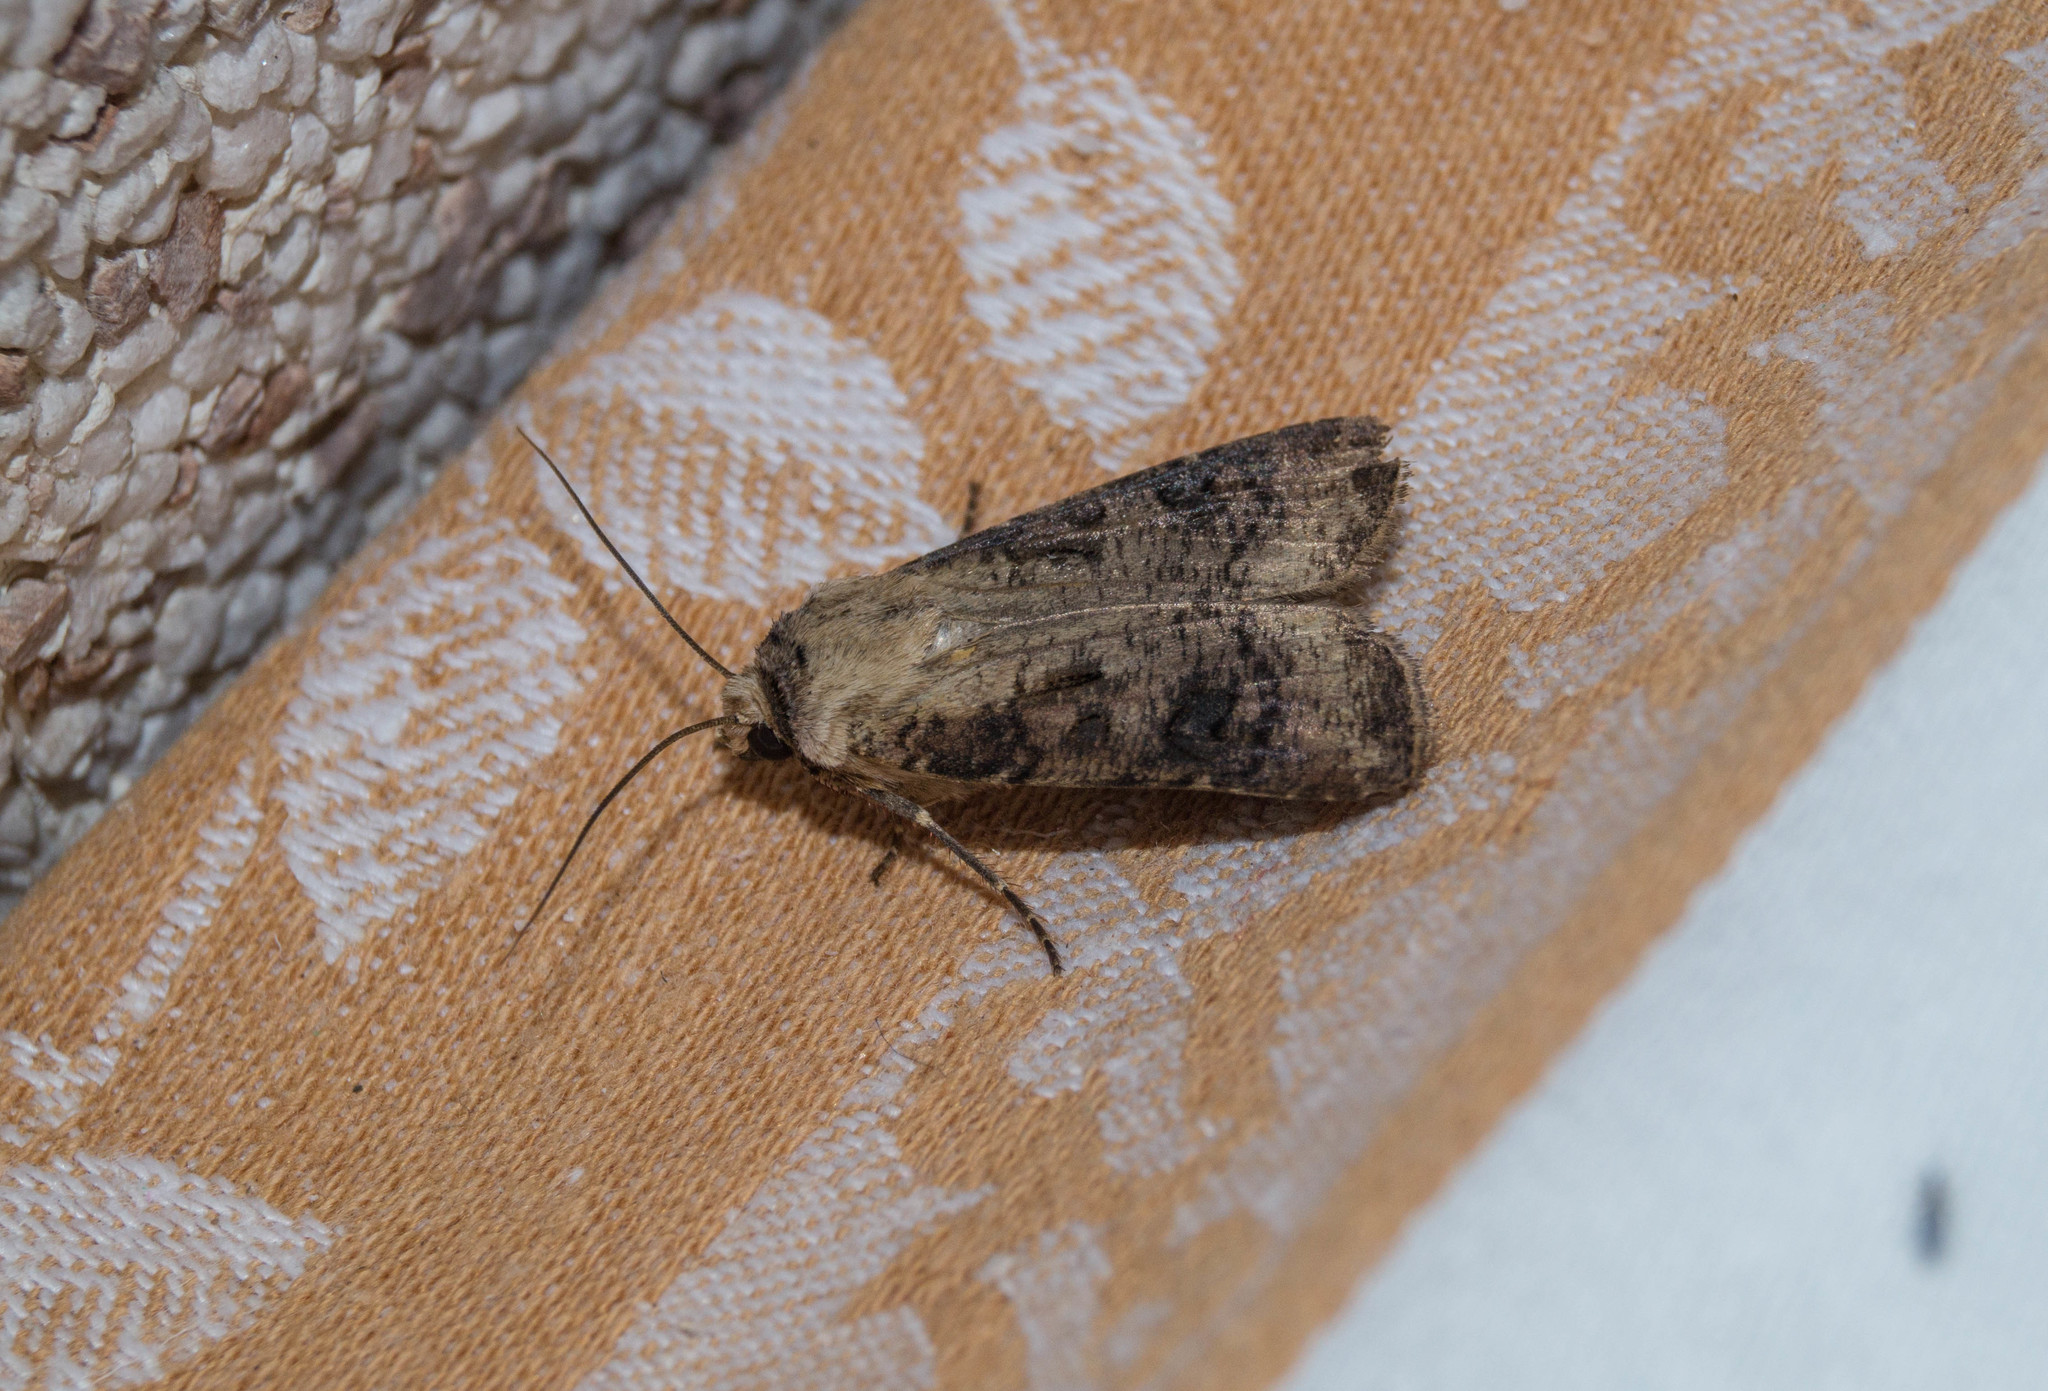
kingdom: Animalia
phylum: Arthropoda
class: Insecta
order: Lepidoptera
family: Noctuidae
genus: Agrotis
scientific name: Agrotis clavis
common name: Heart and club
